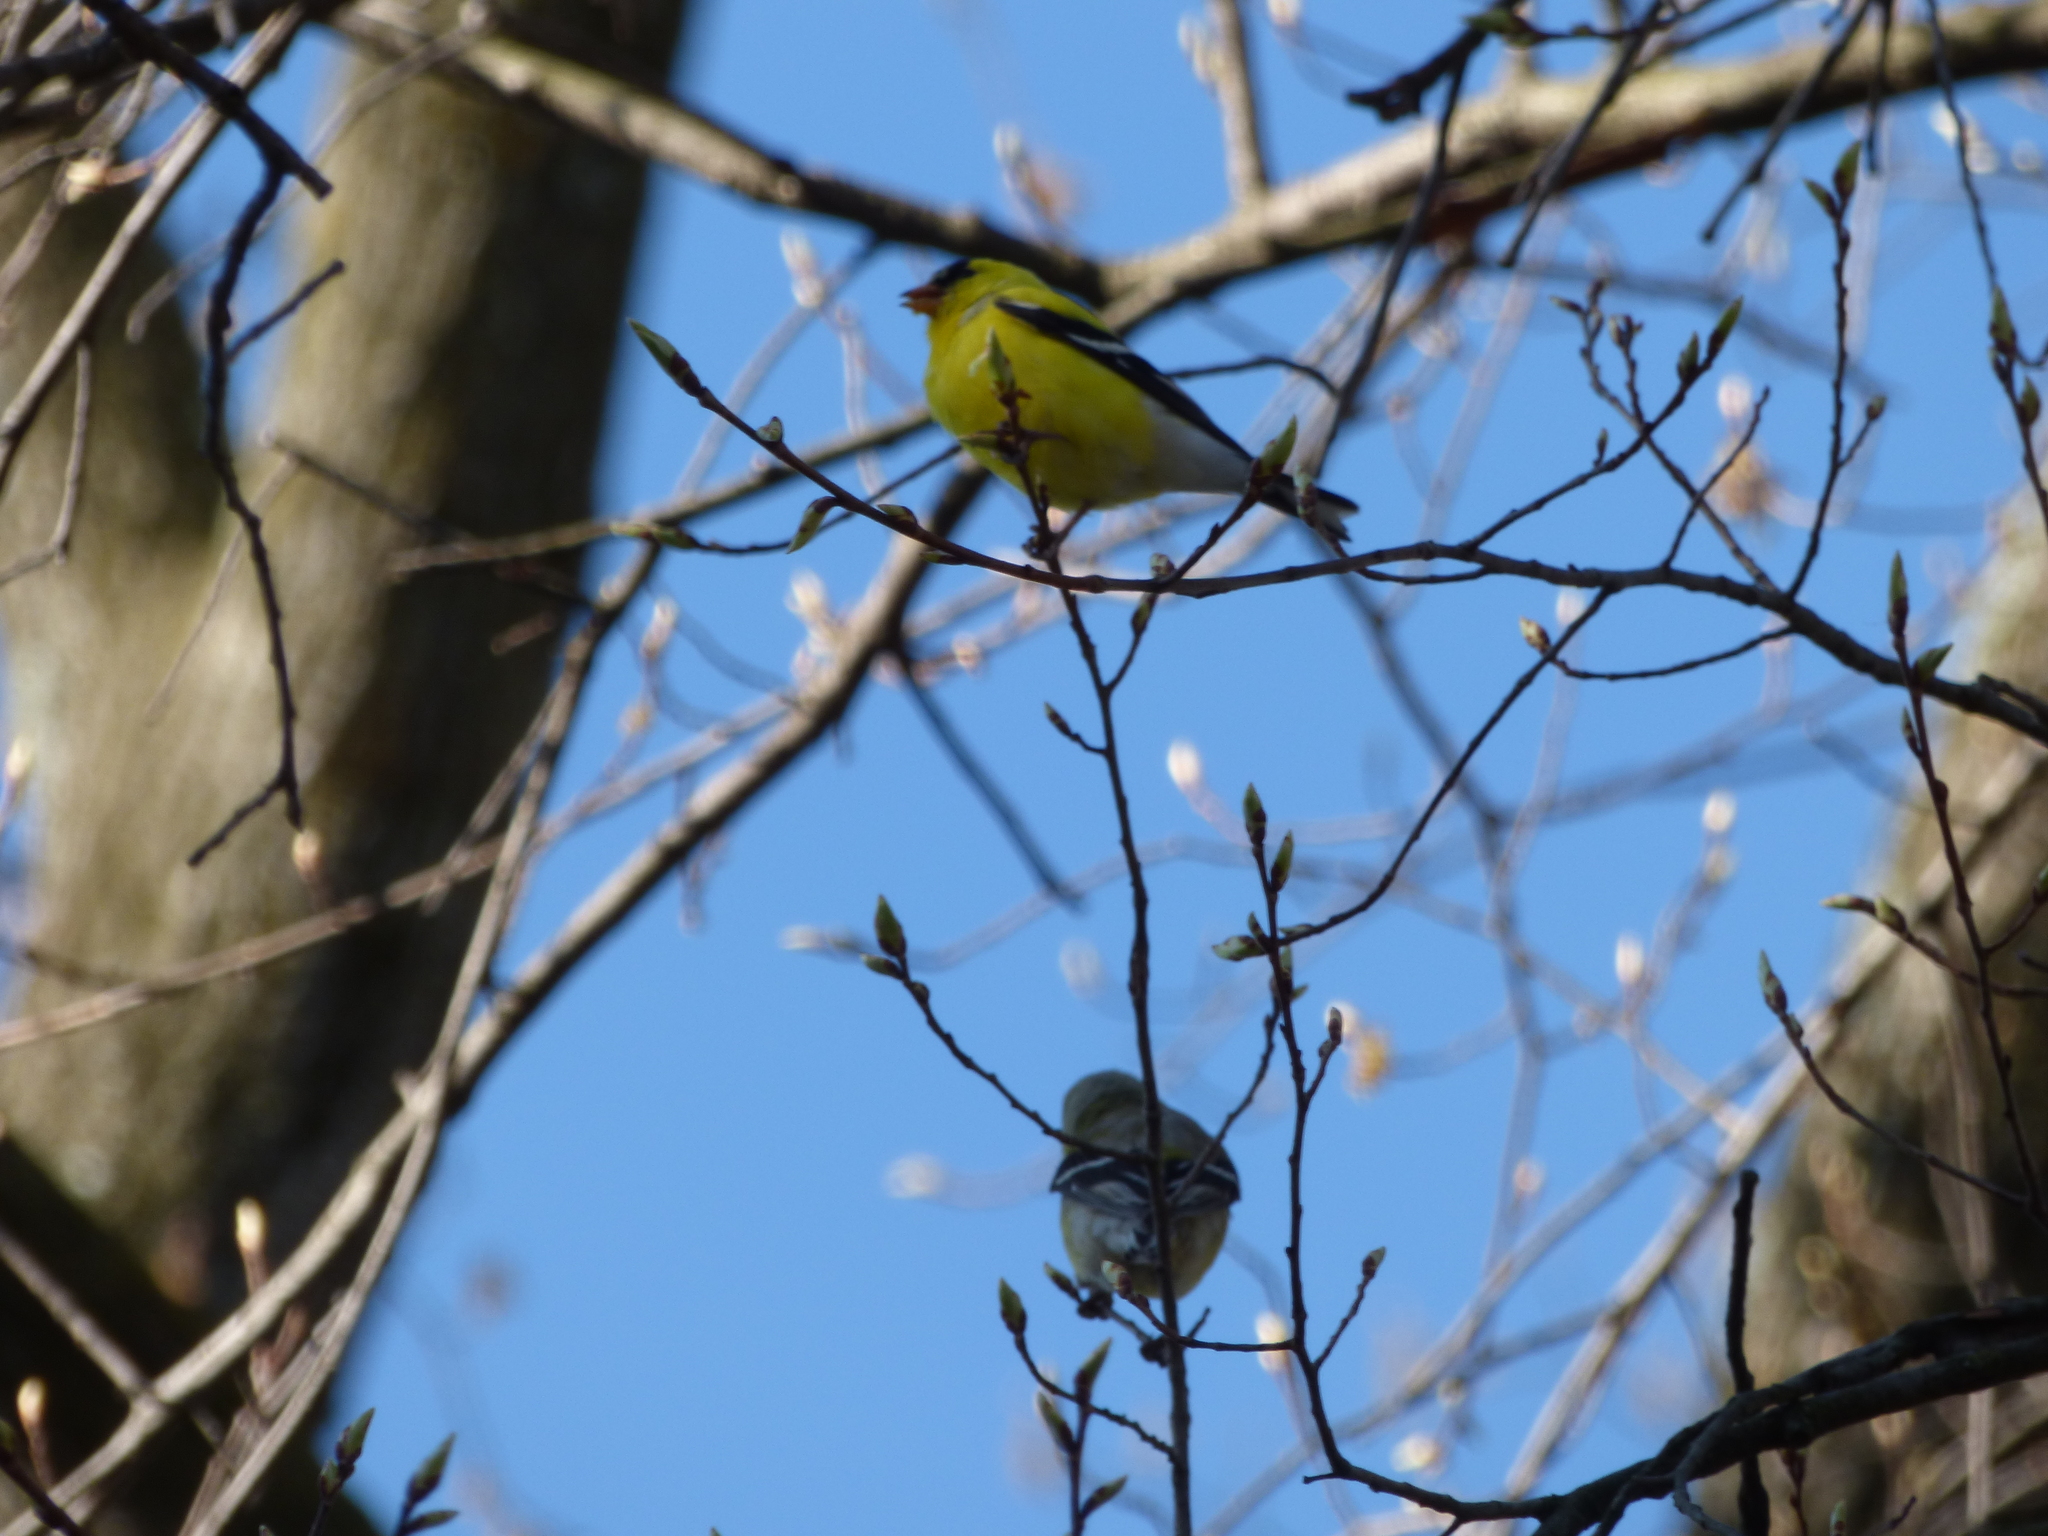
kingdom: Animalia
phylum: Chordata
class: Aves
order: Passeriformes
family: Fringillidae
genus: Spinus
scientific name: Spinus tristis
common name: American goldfinch
